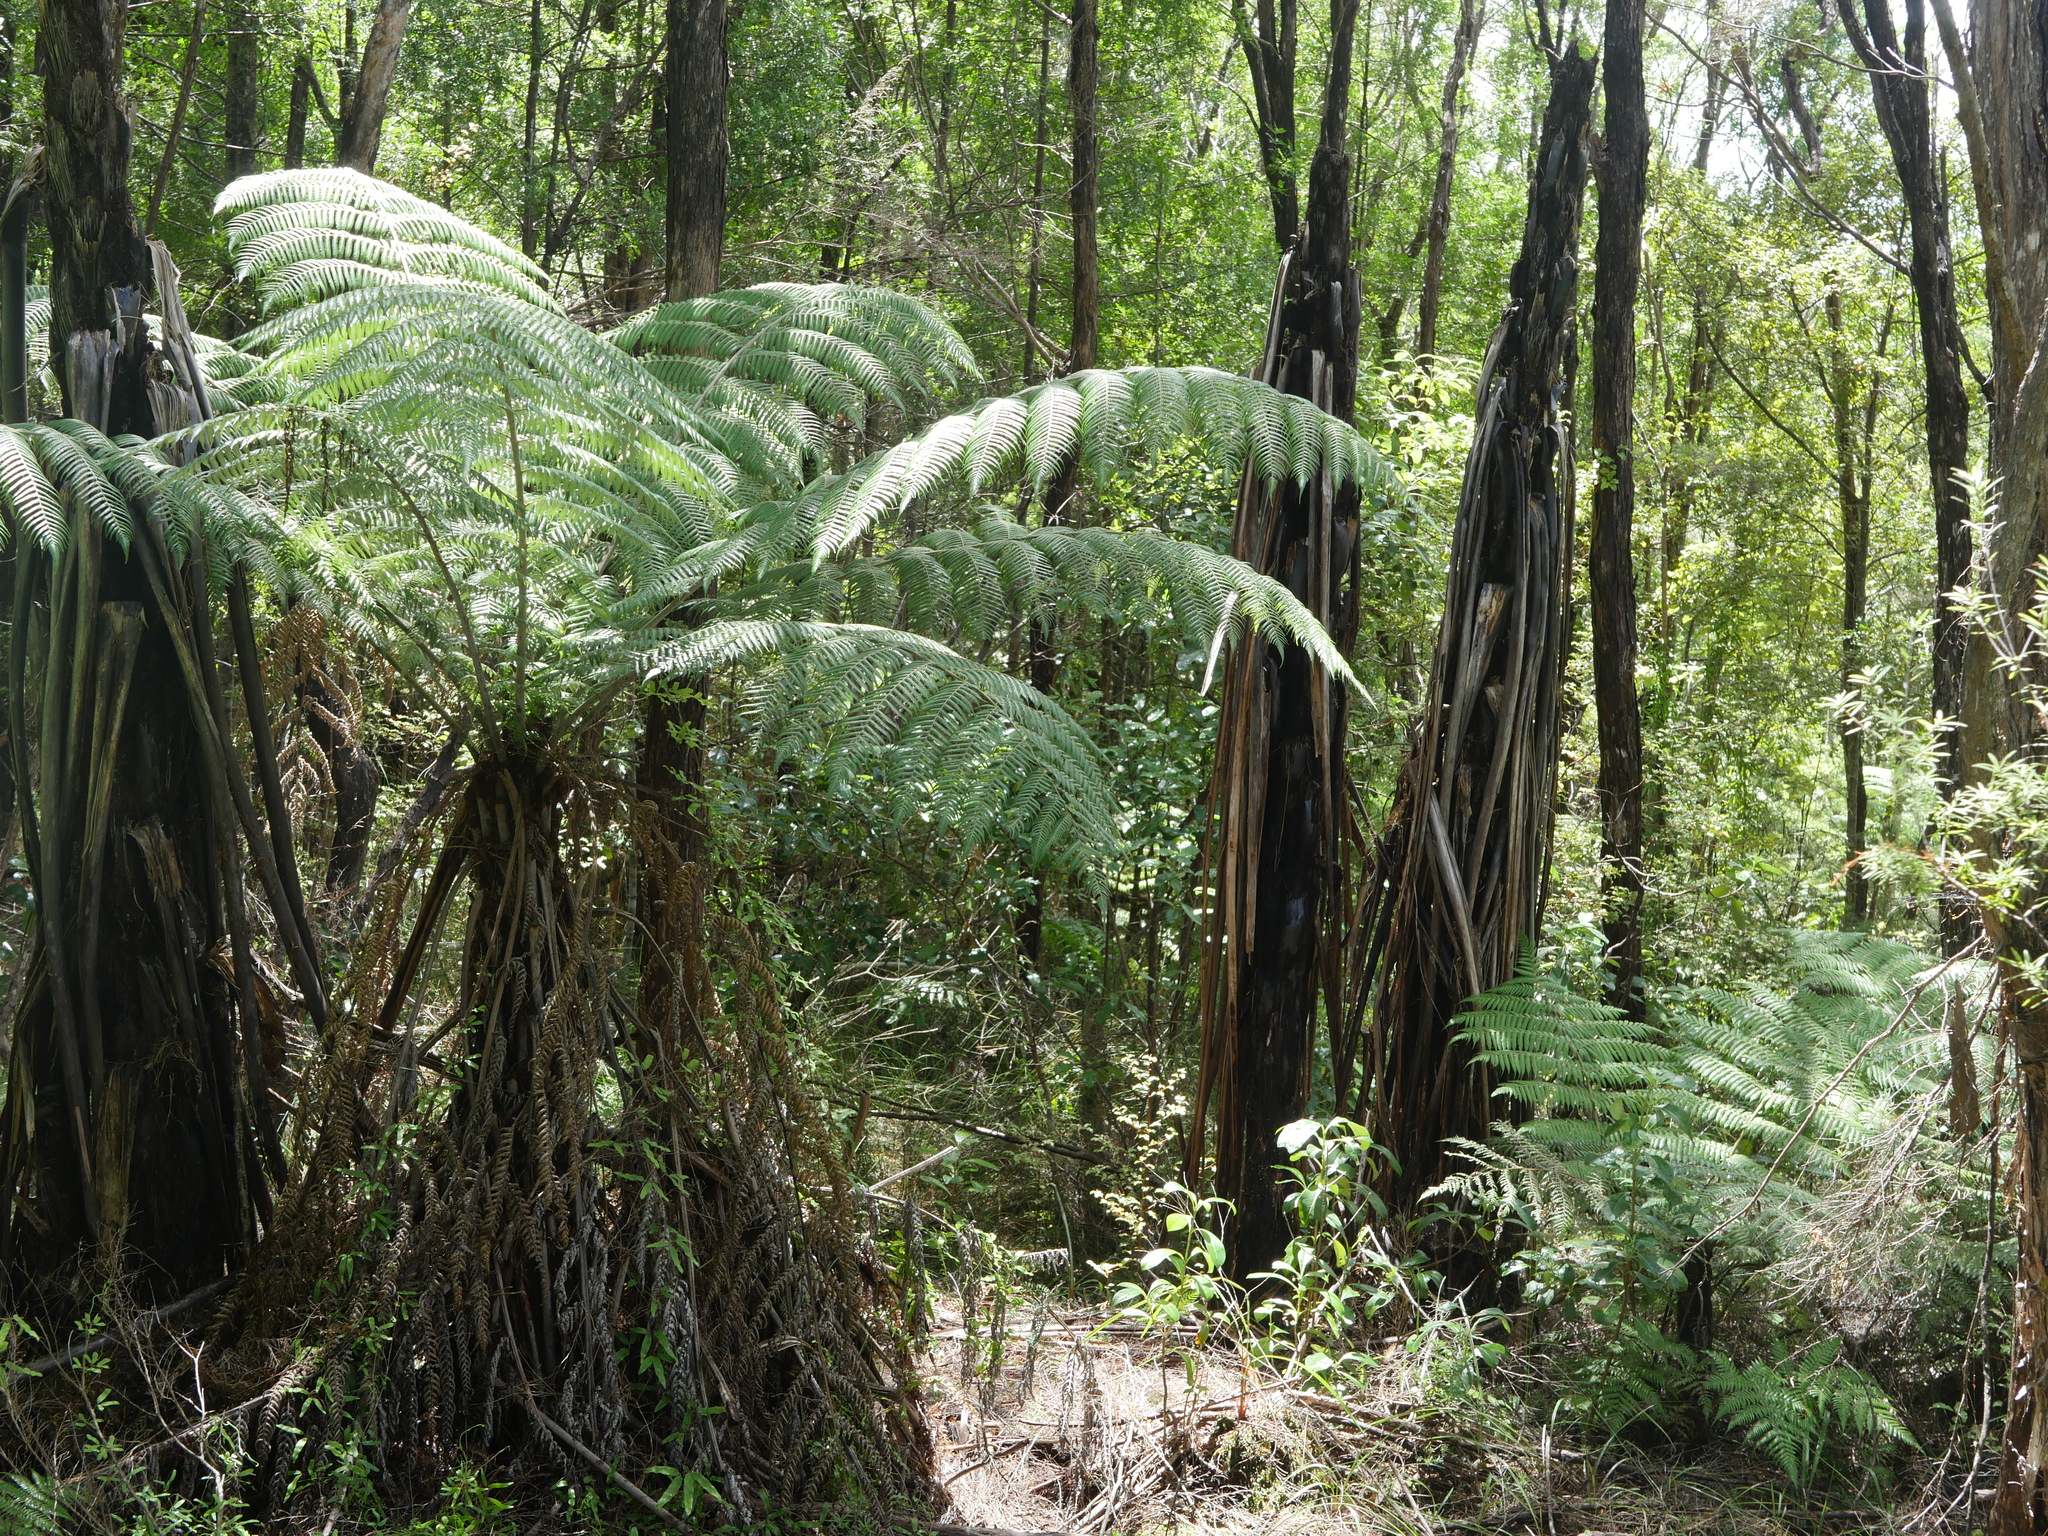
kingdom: Plantae
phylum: Tracheophyta
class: Polypodiopsida
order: Cyatheales
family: Cyatheaceae
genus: Alsophila
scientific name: Alsophila dealbata
